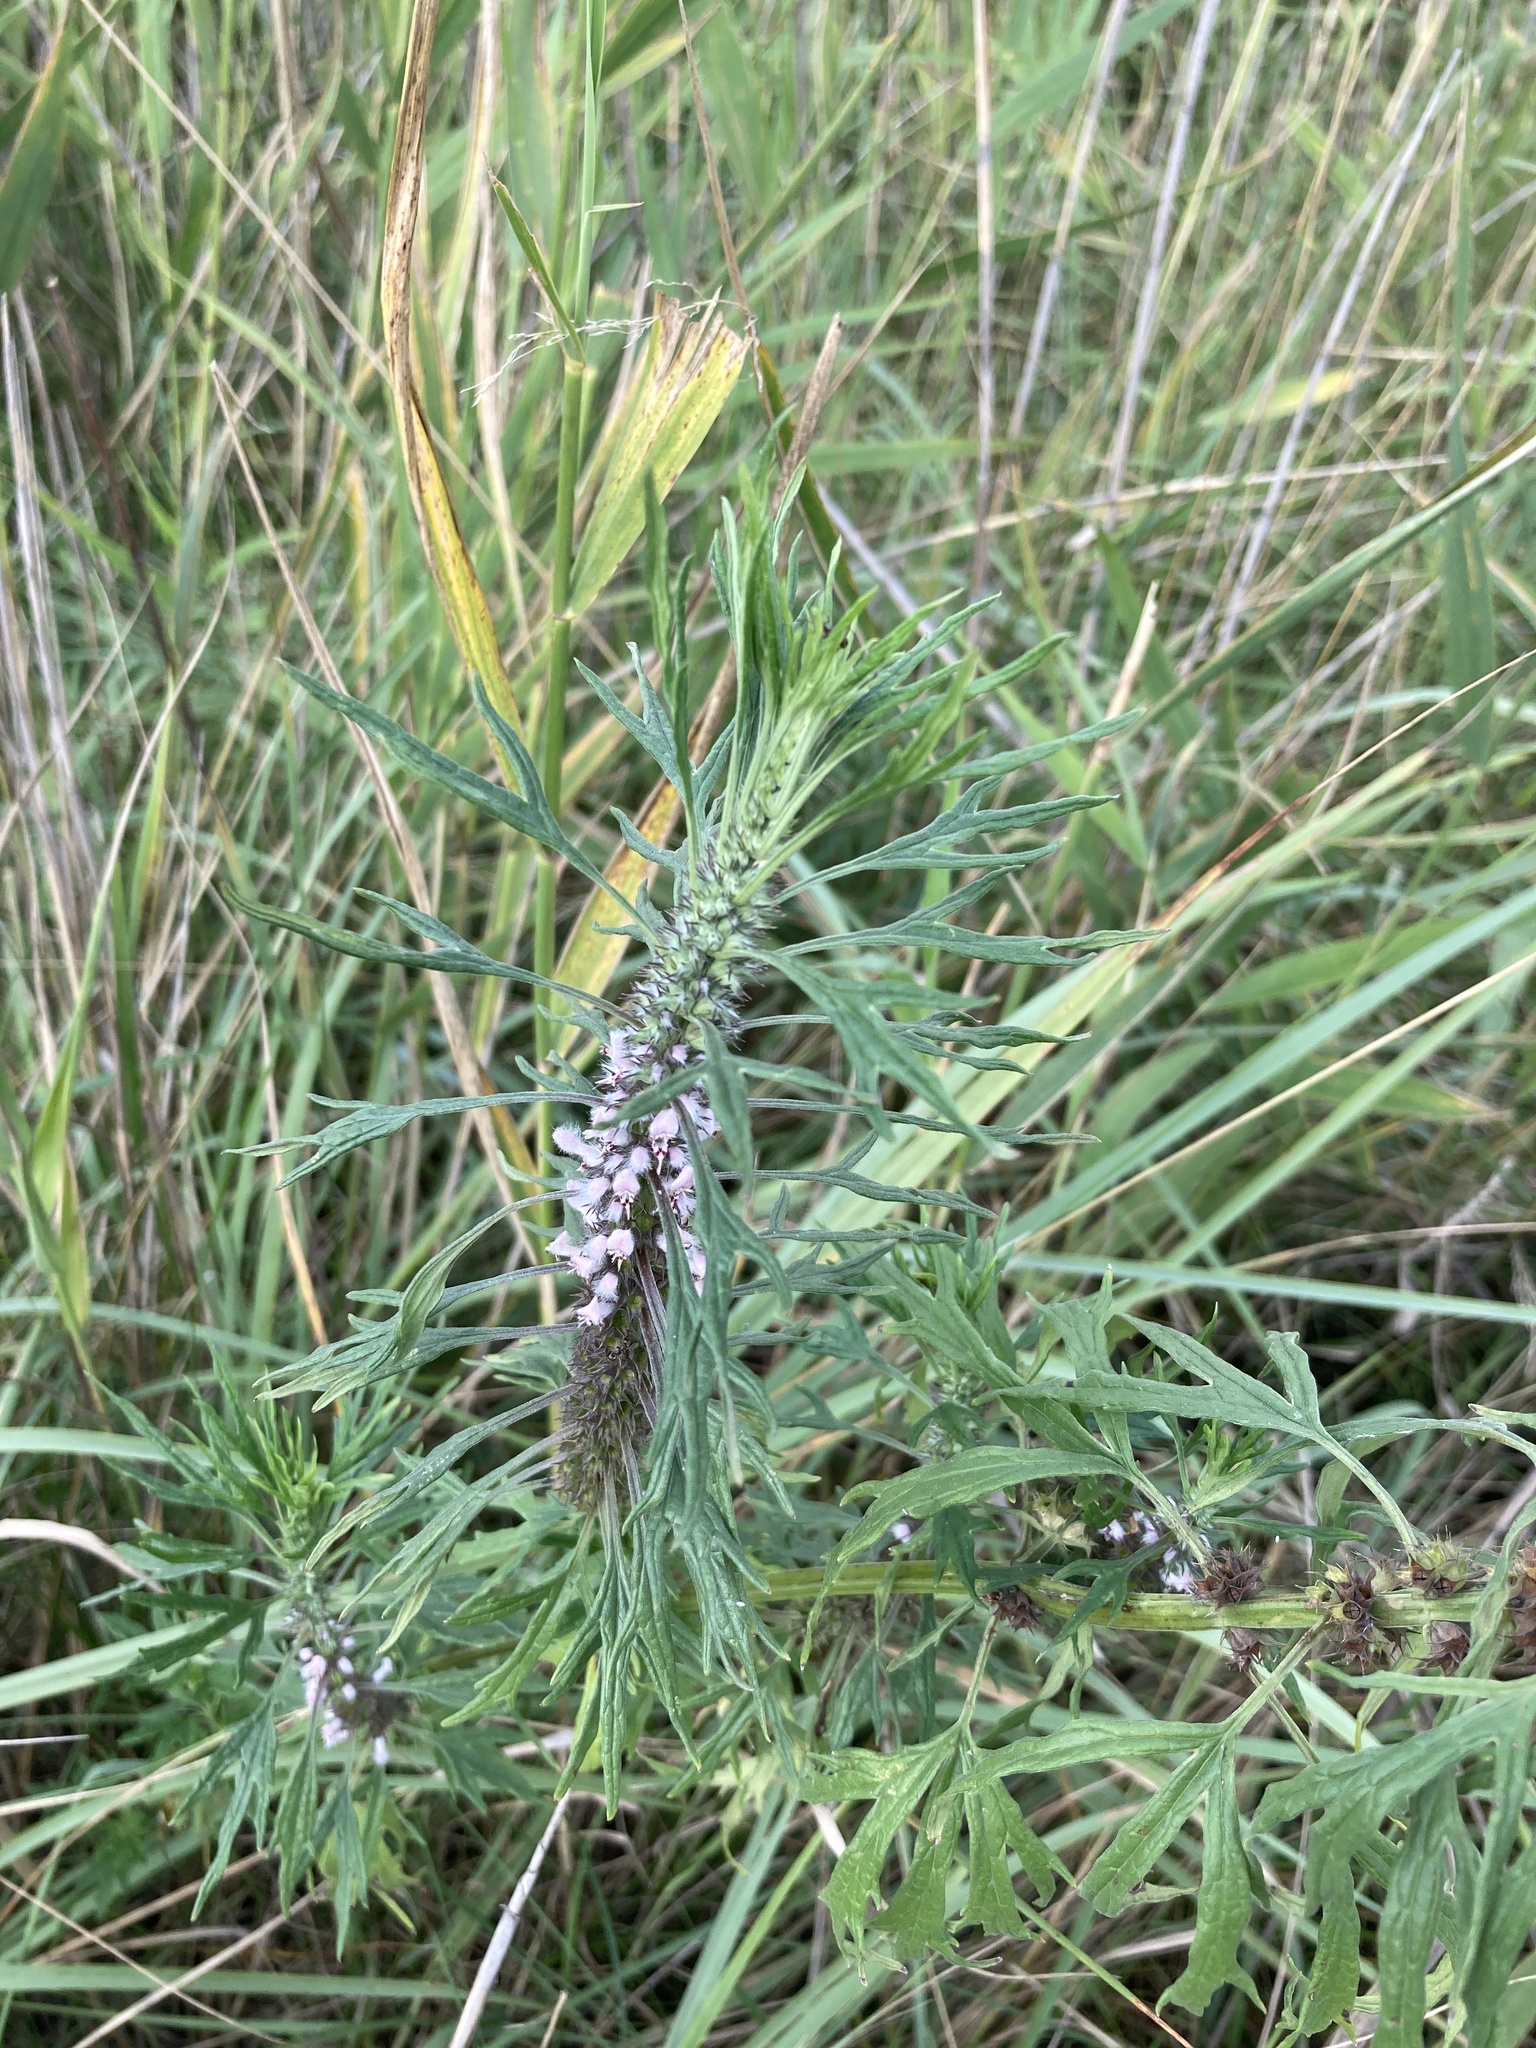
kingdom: Plantae
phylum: Tracheophyta
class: Magnoliopsida
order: Lamiales
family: Lamiaceae
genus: Leonurus
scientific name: Leonurus glaucescens
